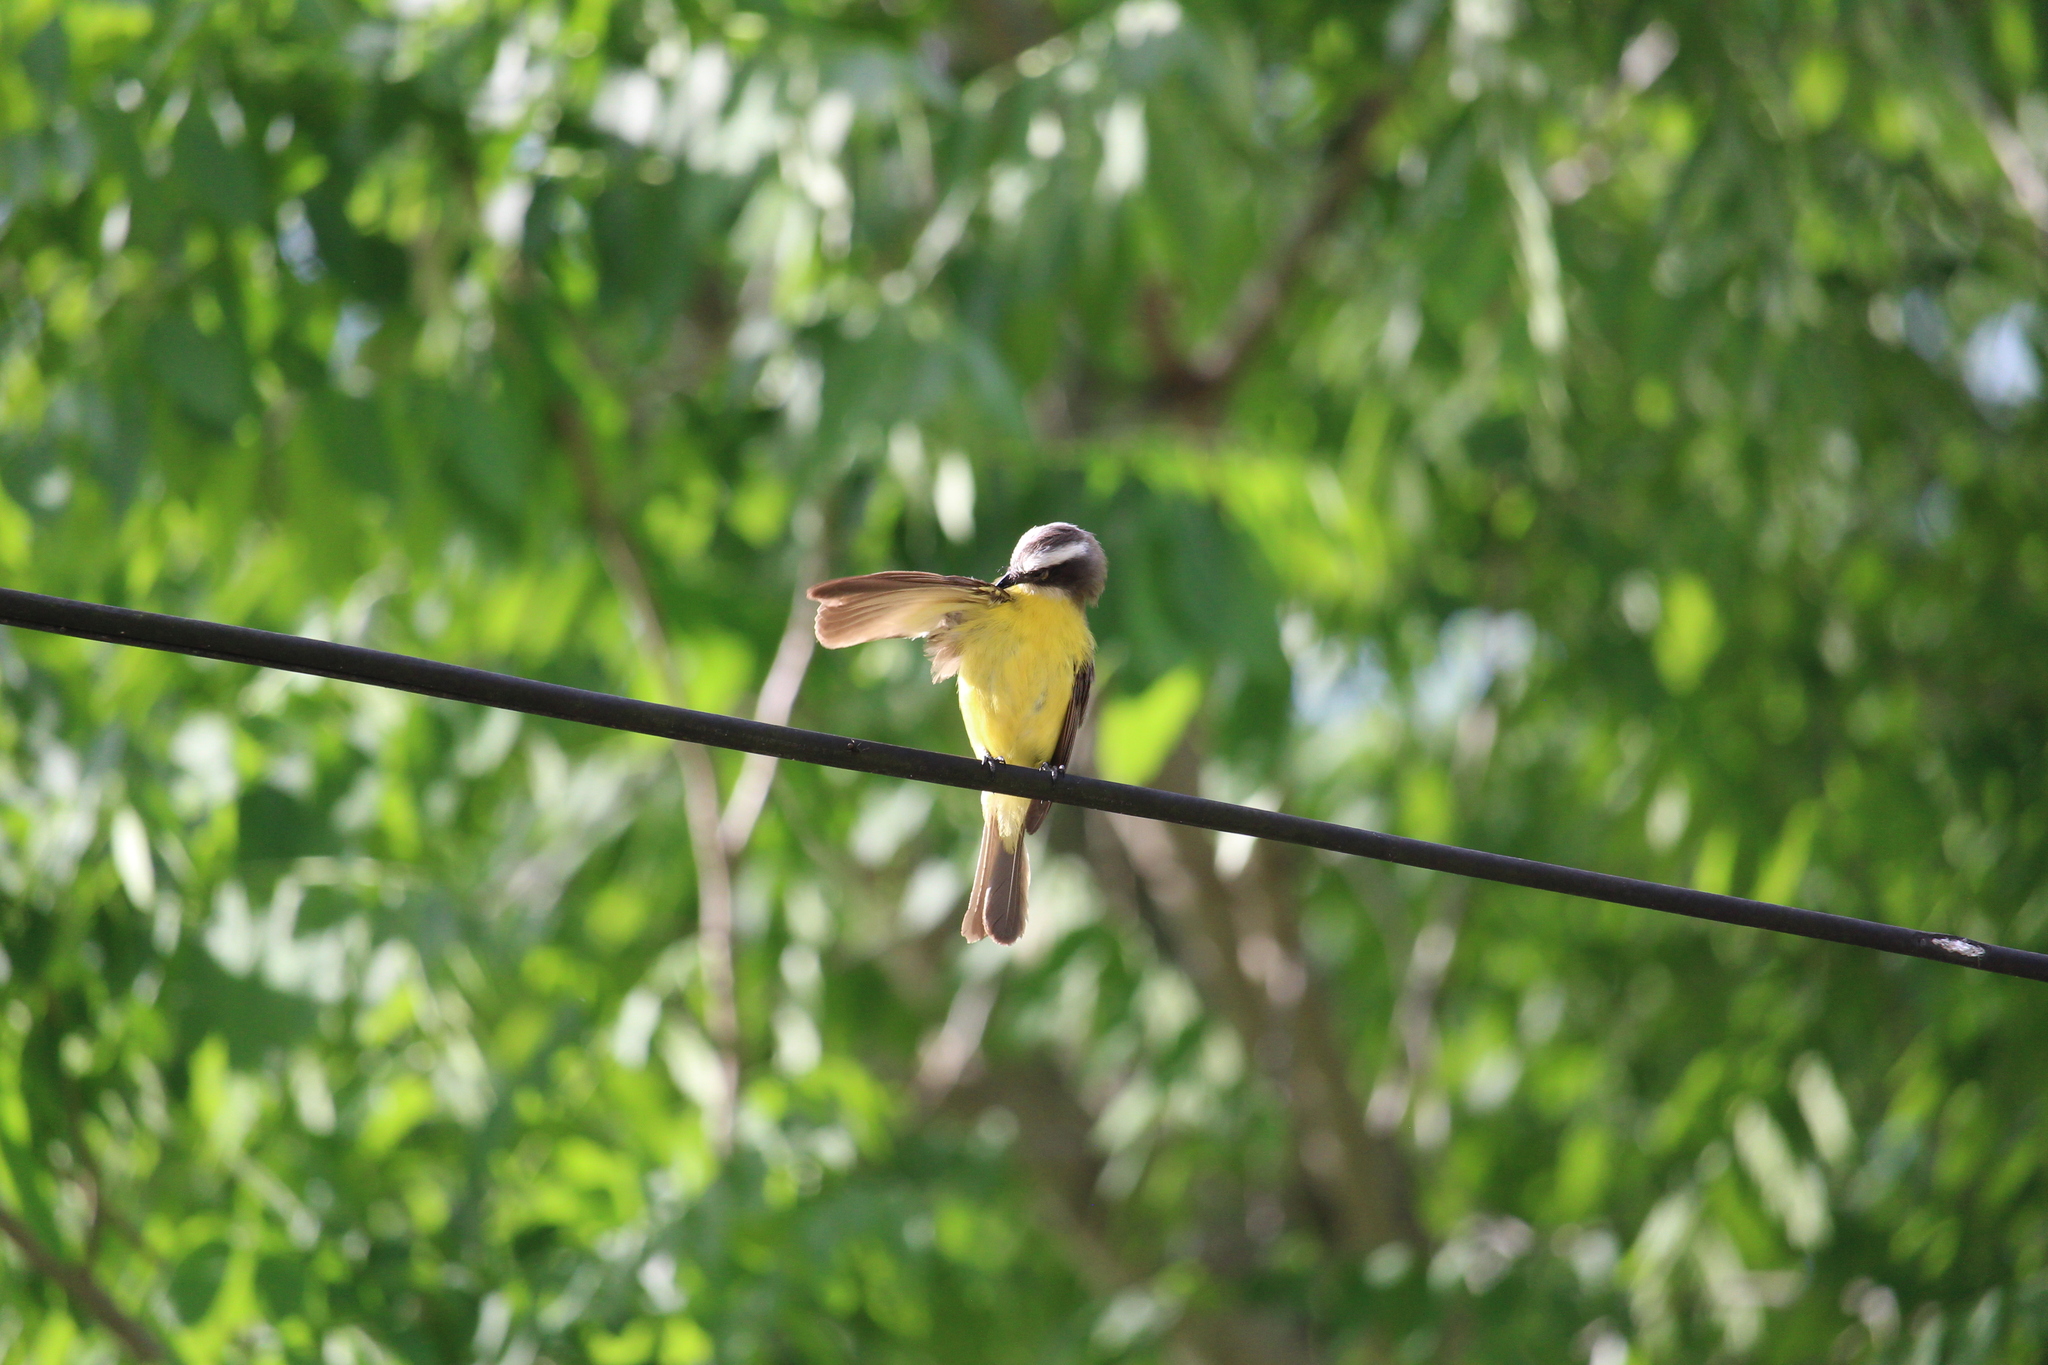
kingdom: Animalia
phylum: Chordata
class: Aves
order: Passeriformes
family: Tyrannidae
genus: Myiozetetes
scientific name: Myiozetetes similis
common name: Social flycatcher
